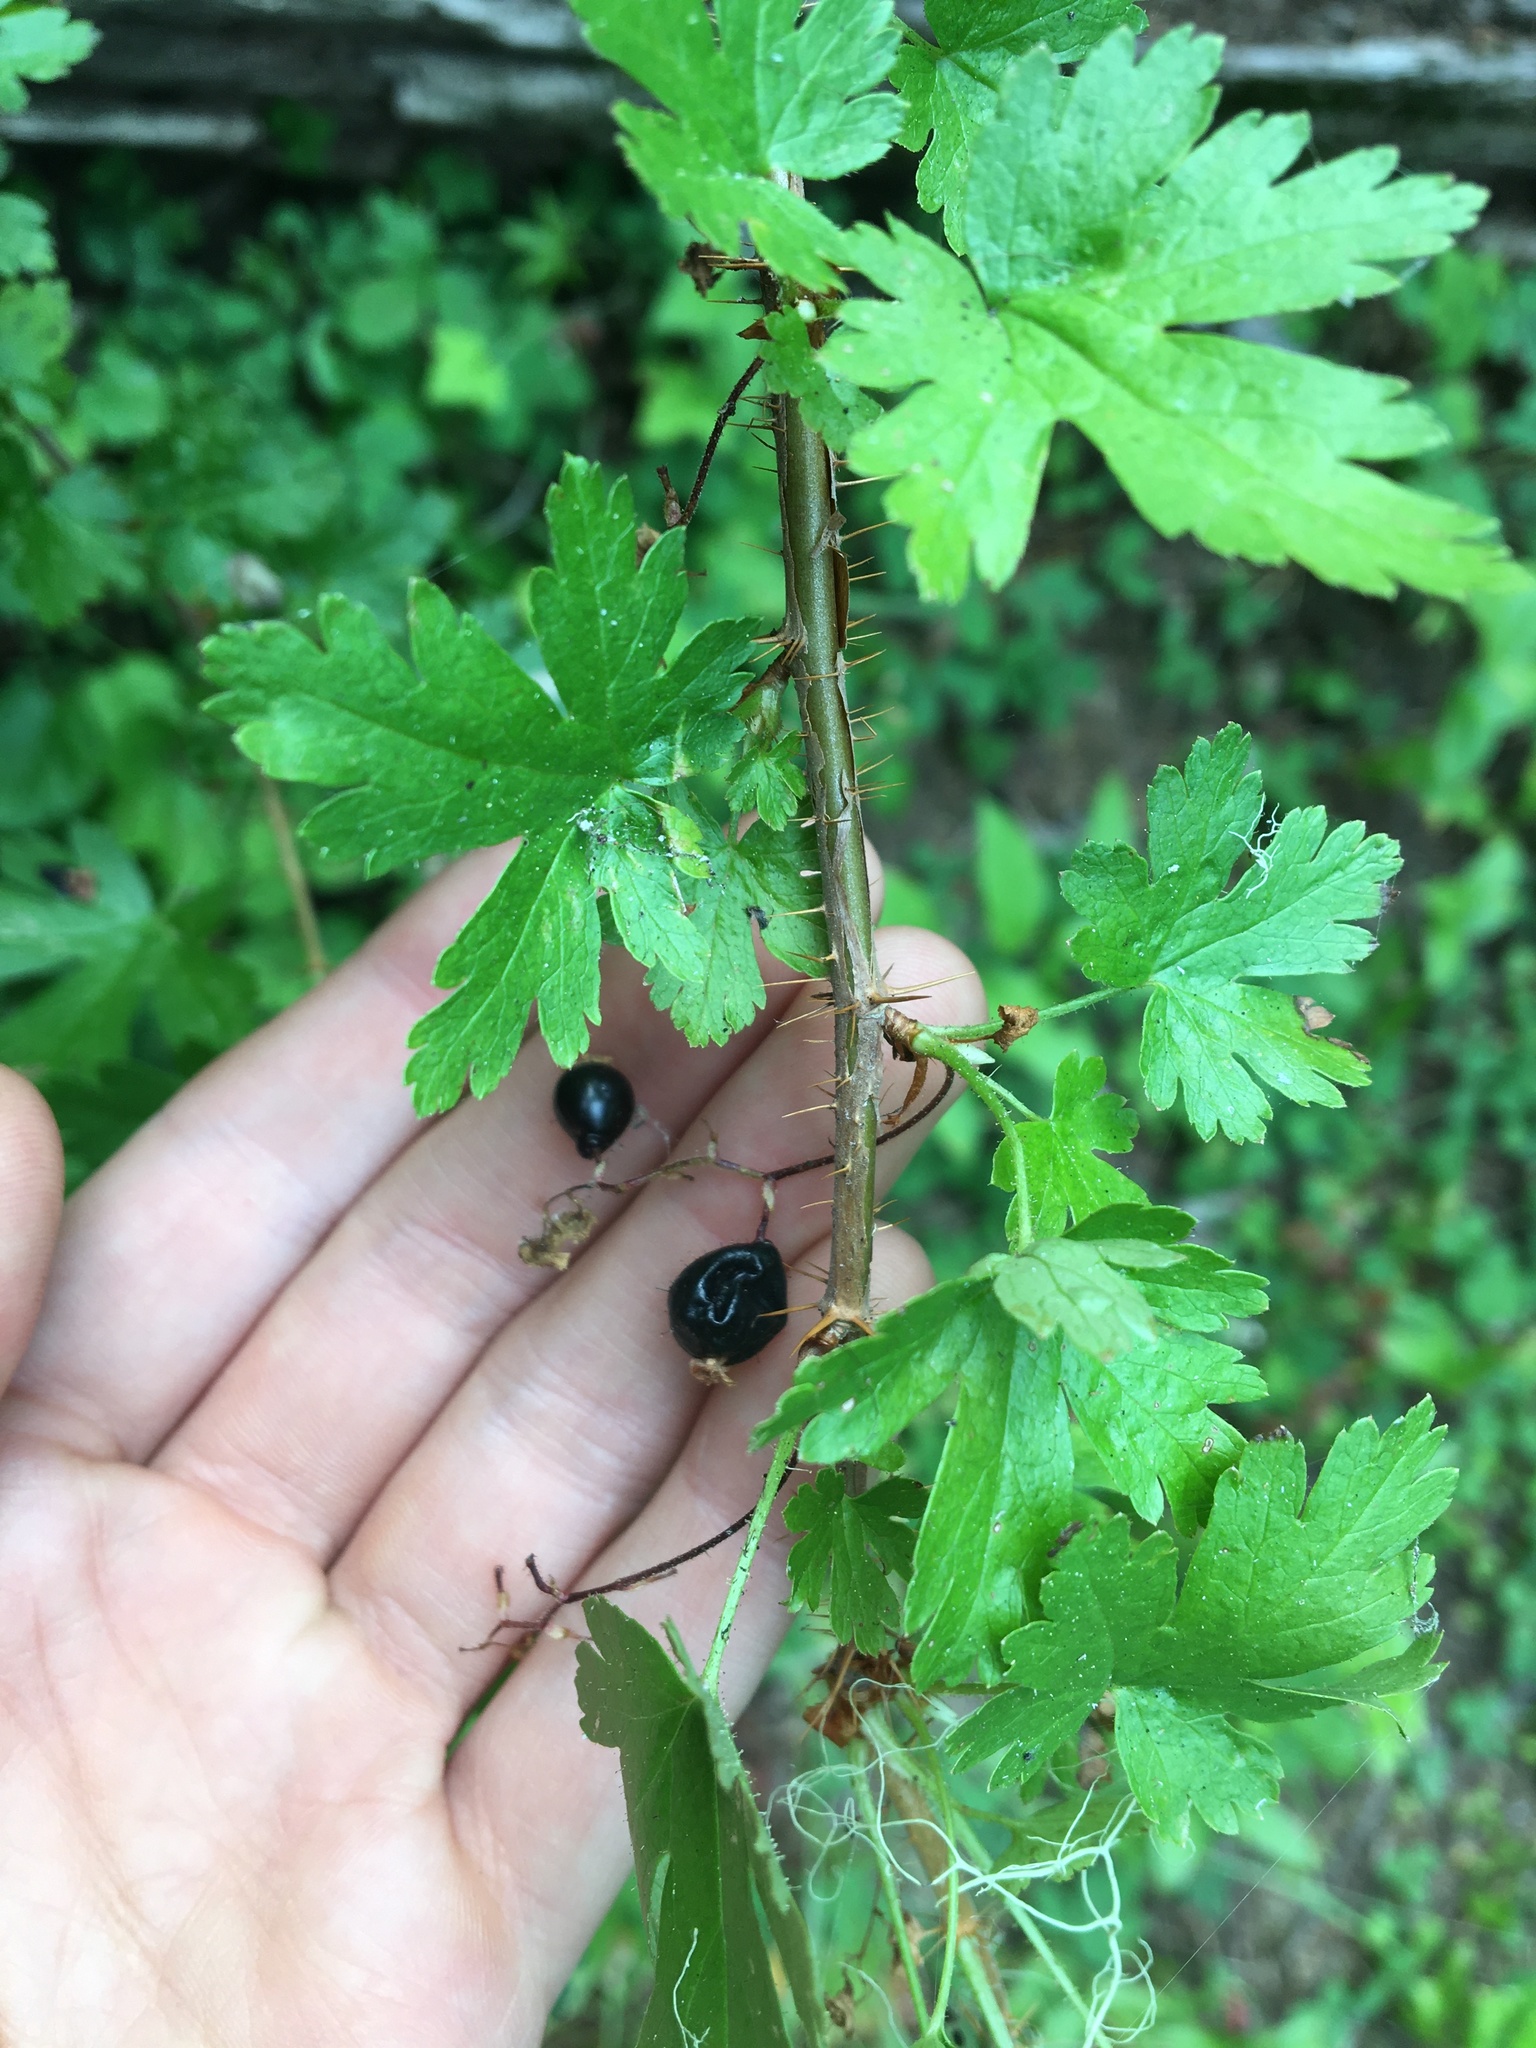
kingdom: Plantae
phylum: Tracheophyta
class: Magnoliopsida
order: Saxifragales
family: Grossulariaceae
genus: Ribes
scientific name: Ribes lacustre
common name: Black gooseberry
